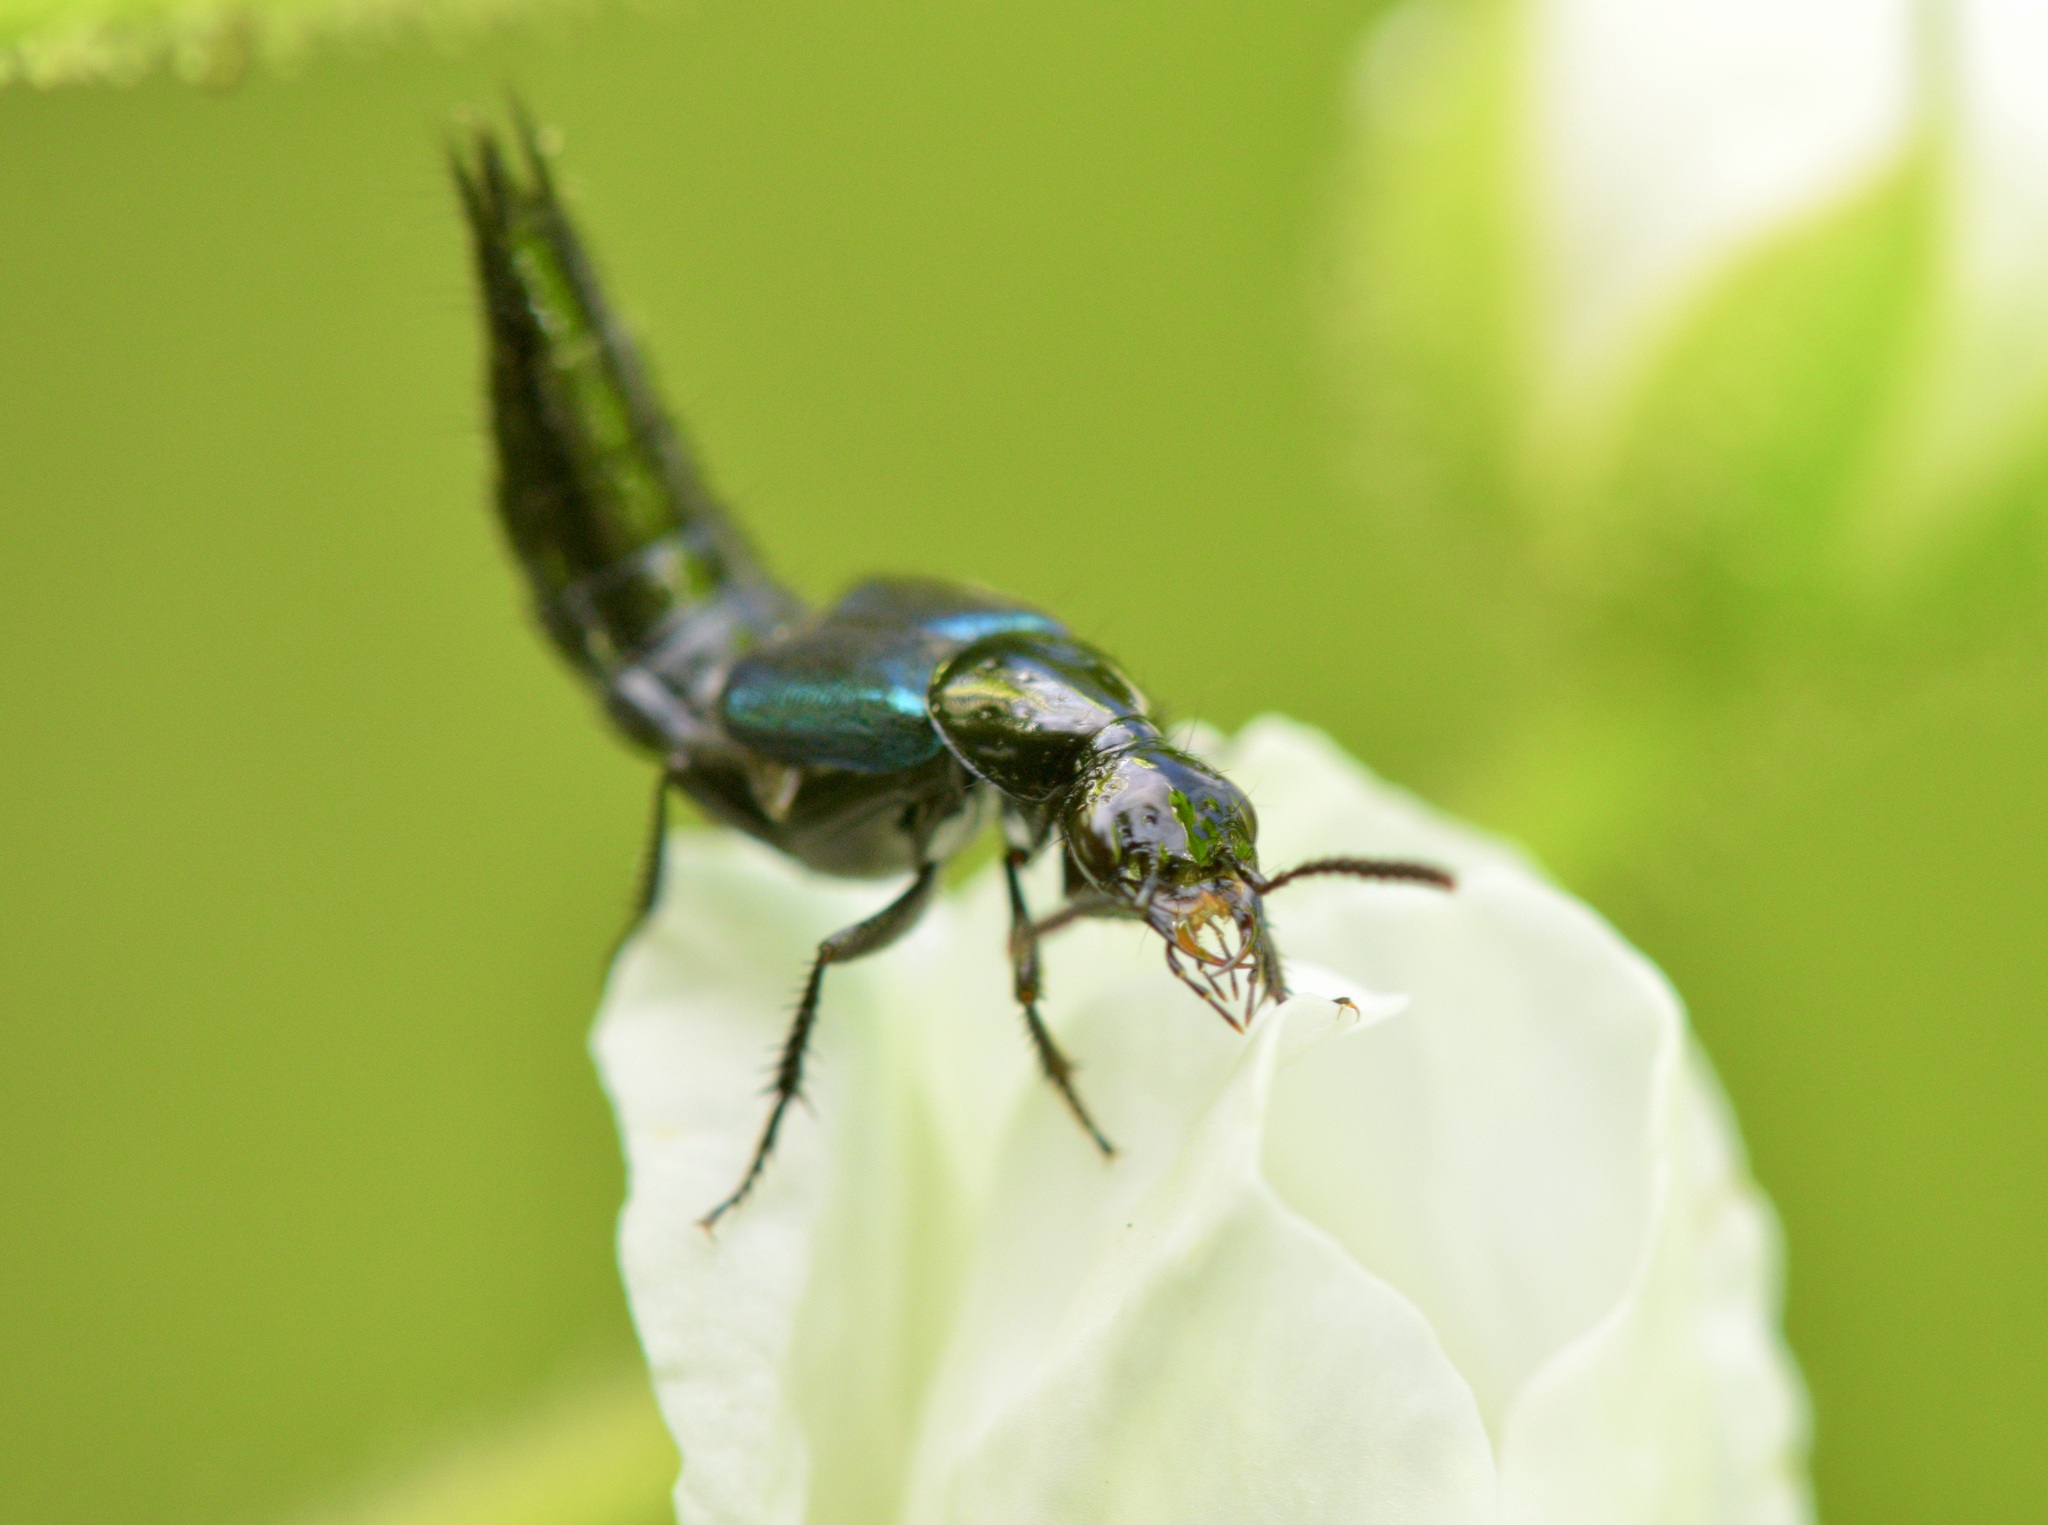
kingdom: Animalia
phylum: Arthropoda
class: Insecta
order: Coleoptera
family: Staphylinidae
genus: Philonthus
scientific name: Philonthus caeruleipennis
